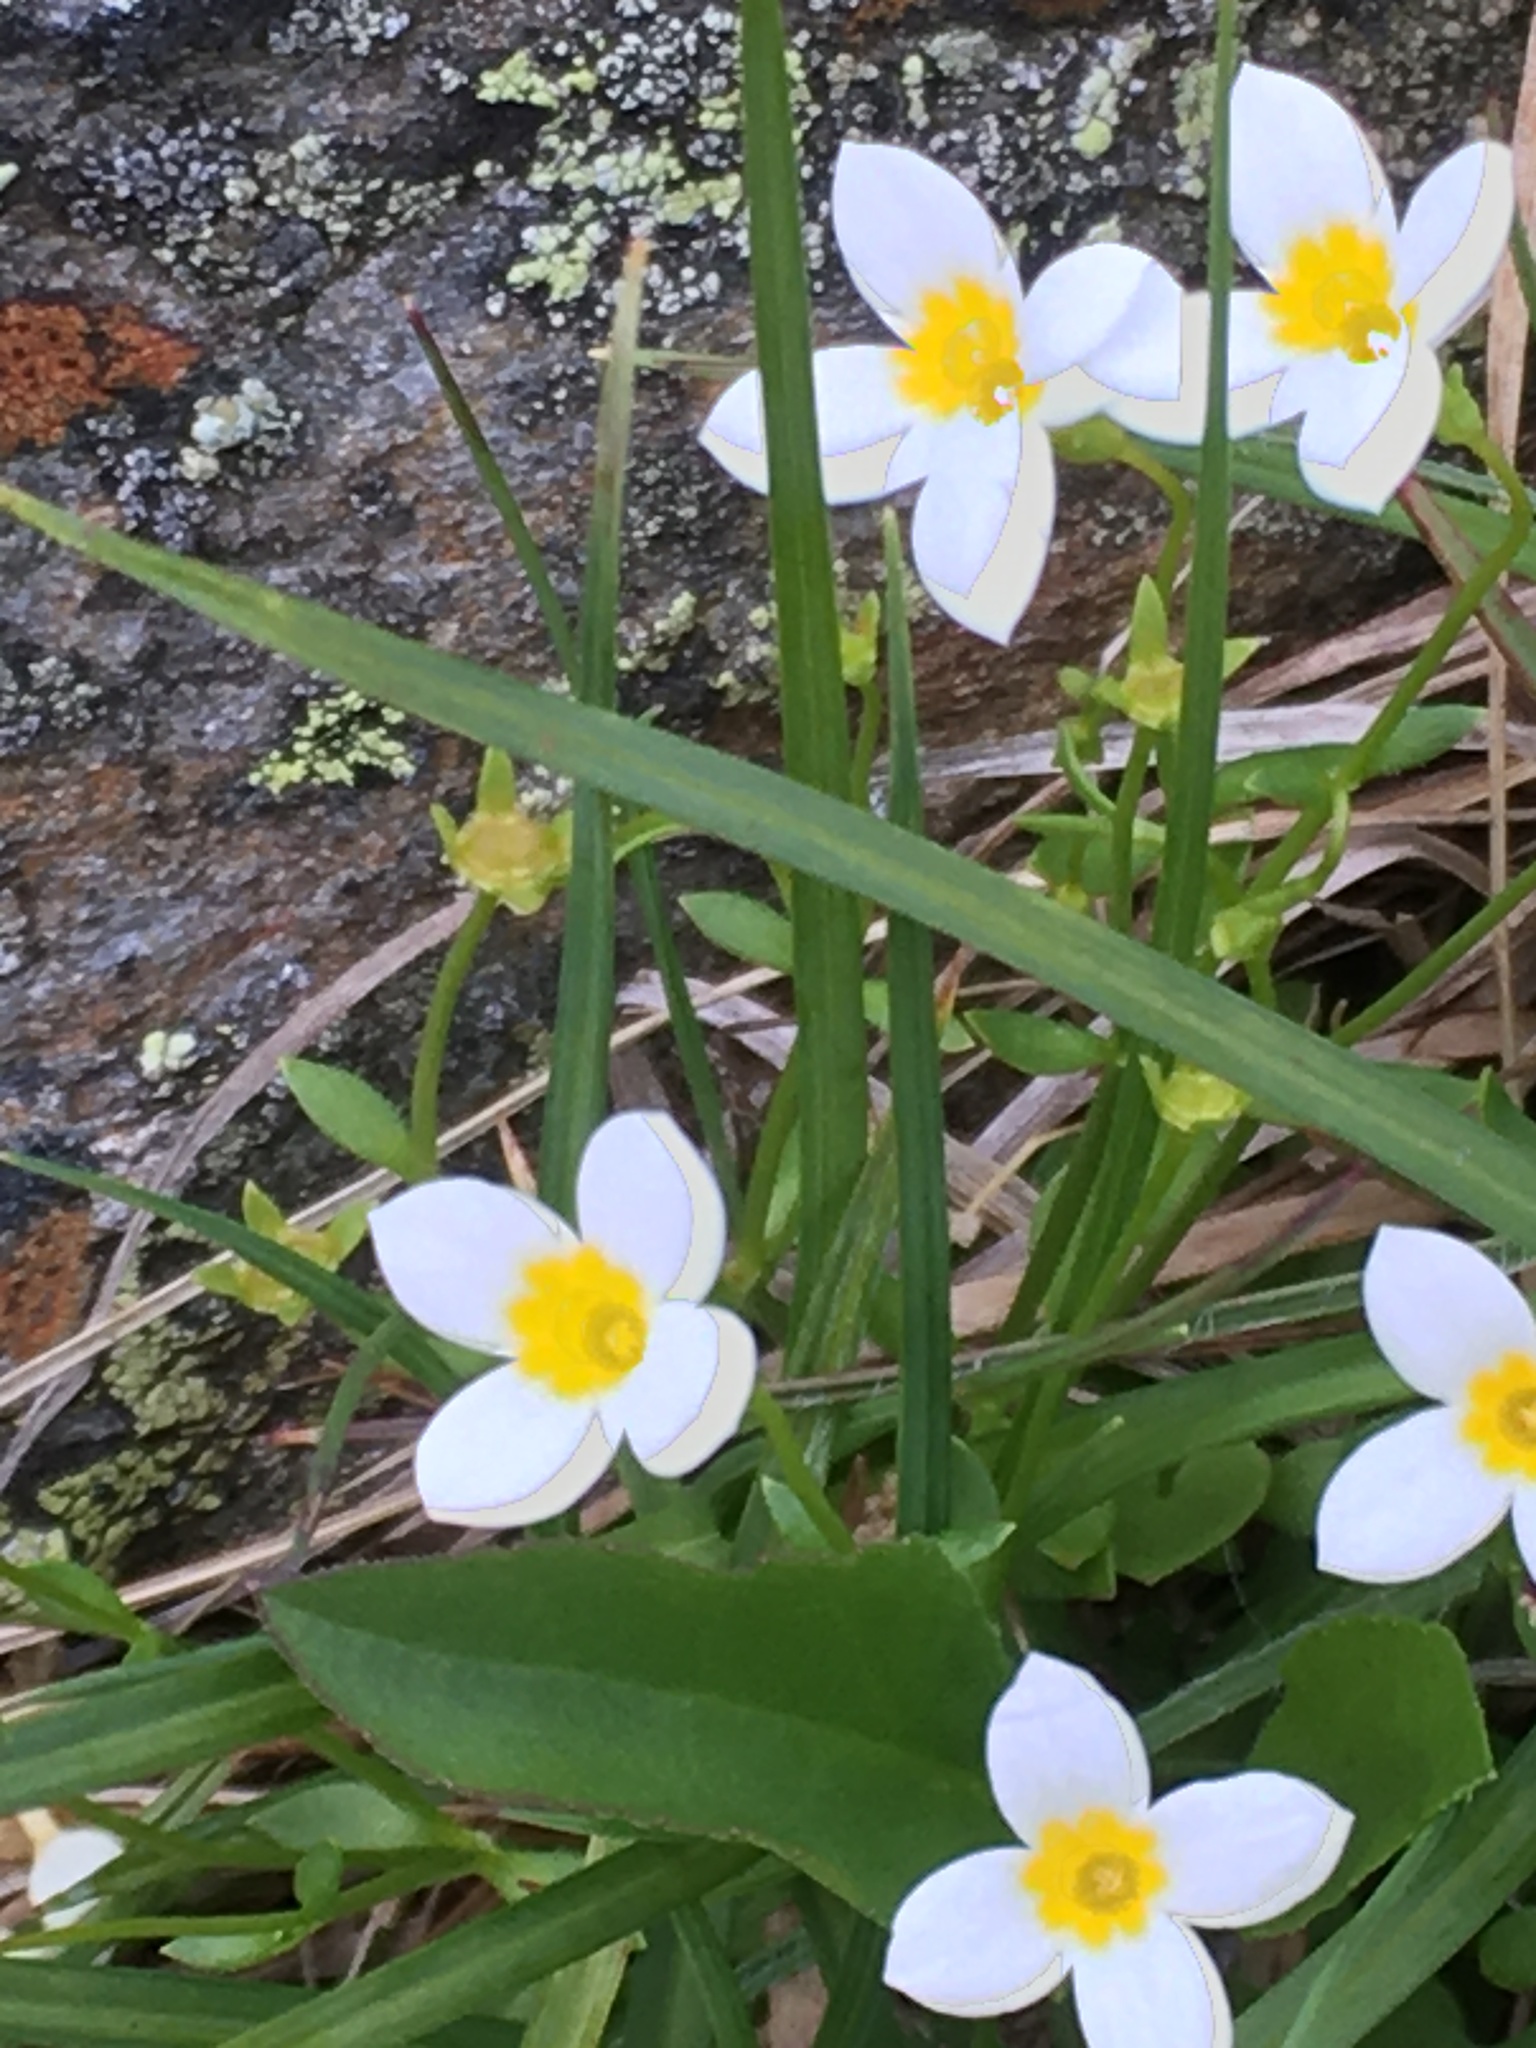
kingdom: Plantae
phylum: Tracheophyta
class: Magnoliopsida
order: Gentianales
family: Rubiaceae
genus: Houstonia
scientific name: Houstonia caerulea
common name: Bluets
